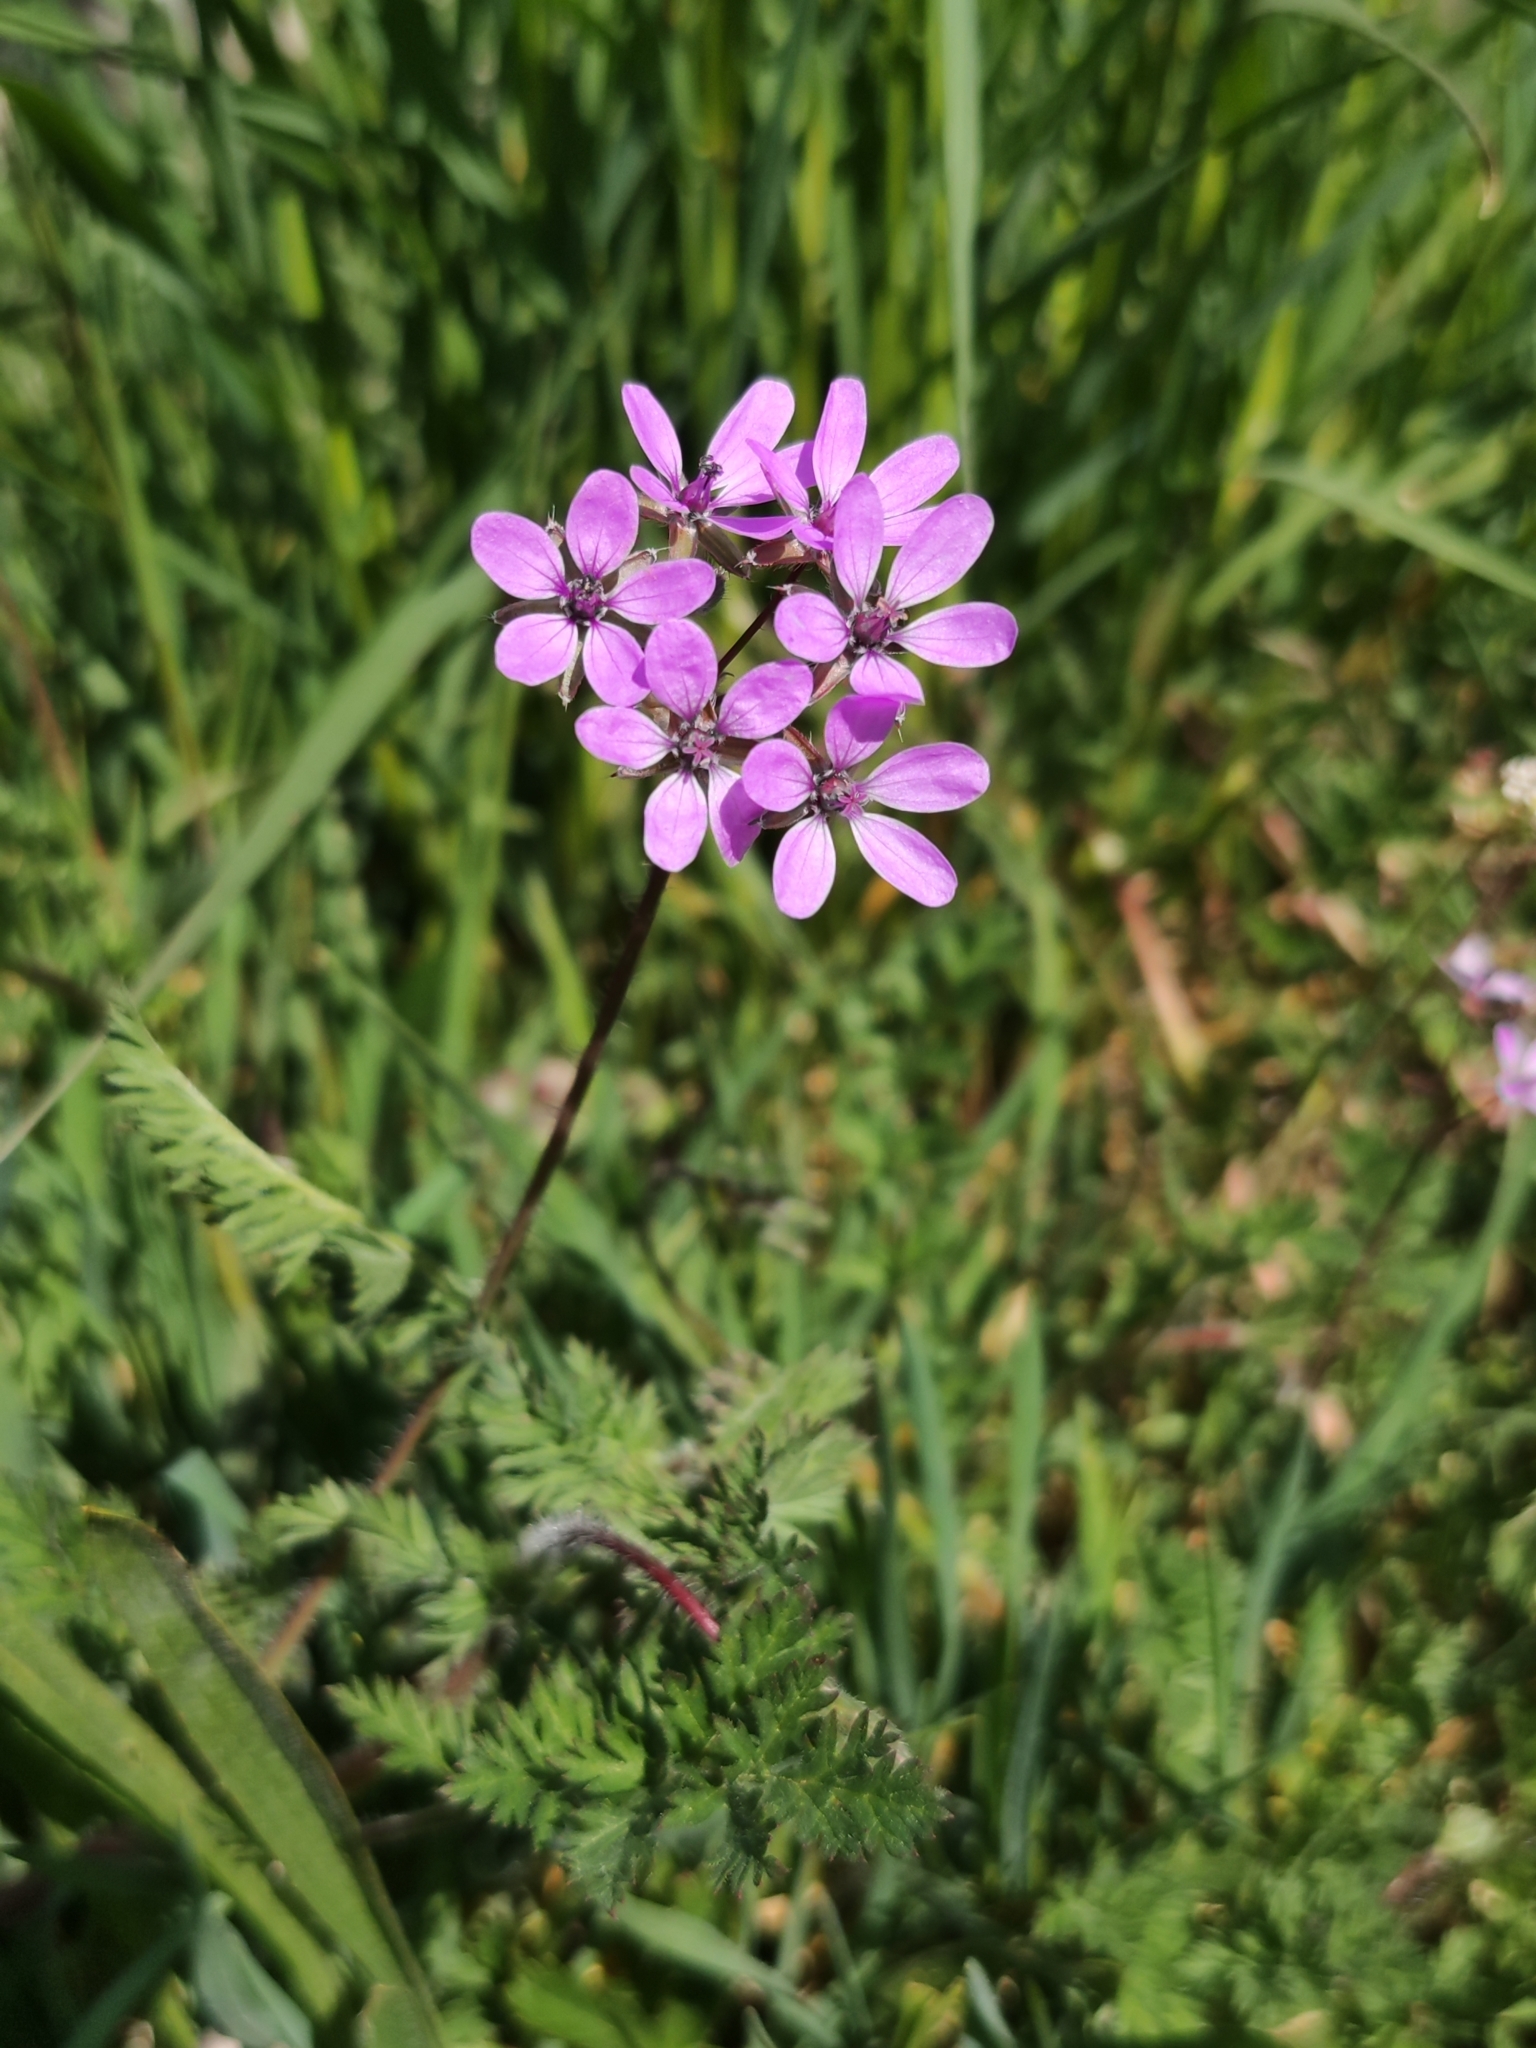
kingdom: Plantae
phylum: Tracheophyta
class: Magnoliopsida
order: Geraniales
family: Geraniaceae
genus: Erodium
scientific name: Erodium cicutarium
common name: Common stork's-bill
